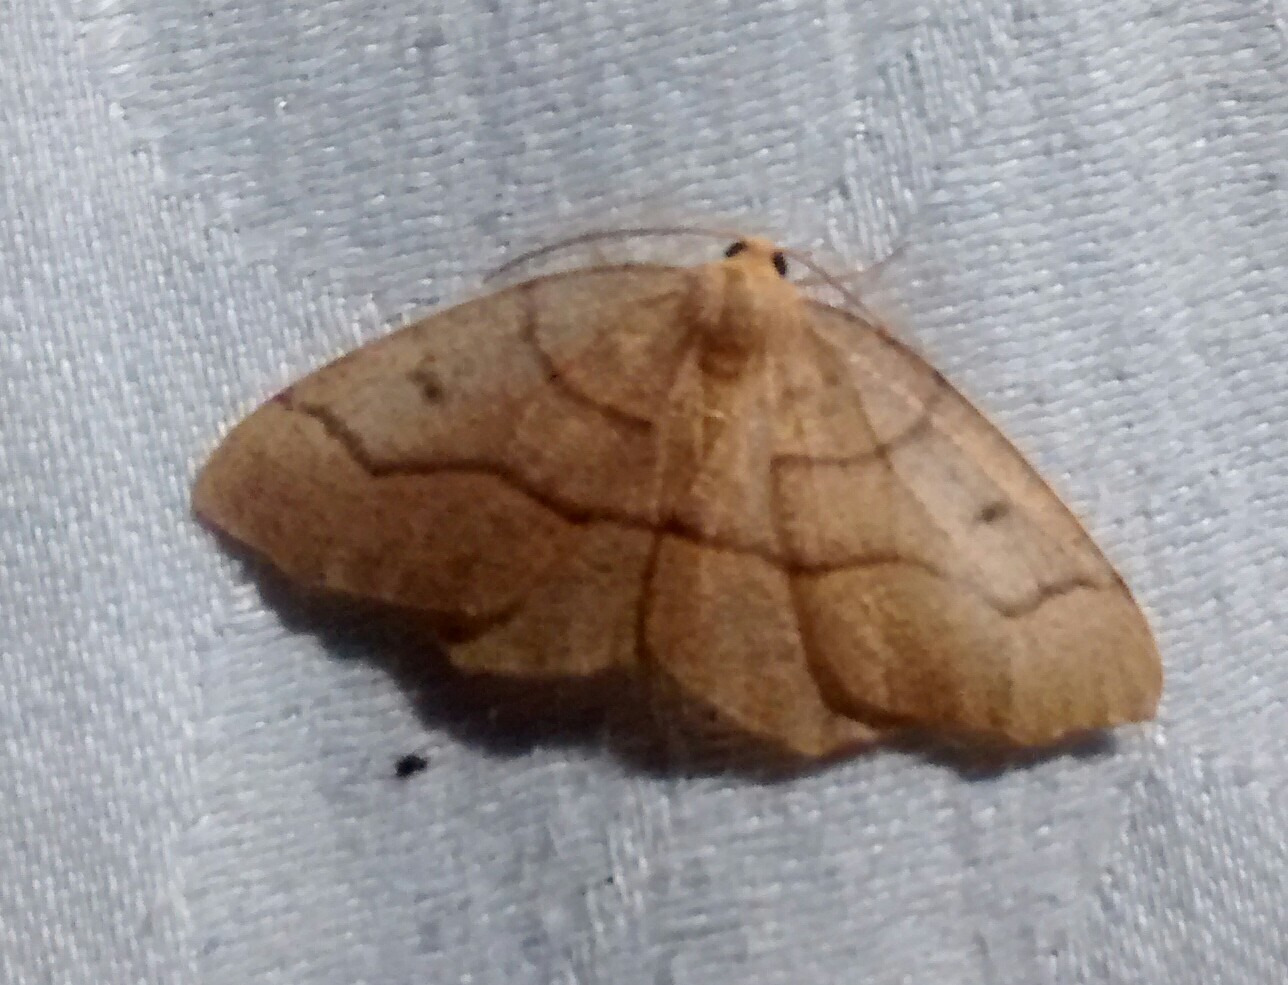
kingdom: Animalia
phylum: Arthropoda
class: Insecta
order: Lepidoptera
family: Geometridae
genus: Lambdina
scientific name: Lambdina fiscellaria
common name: Hemlock looper
